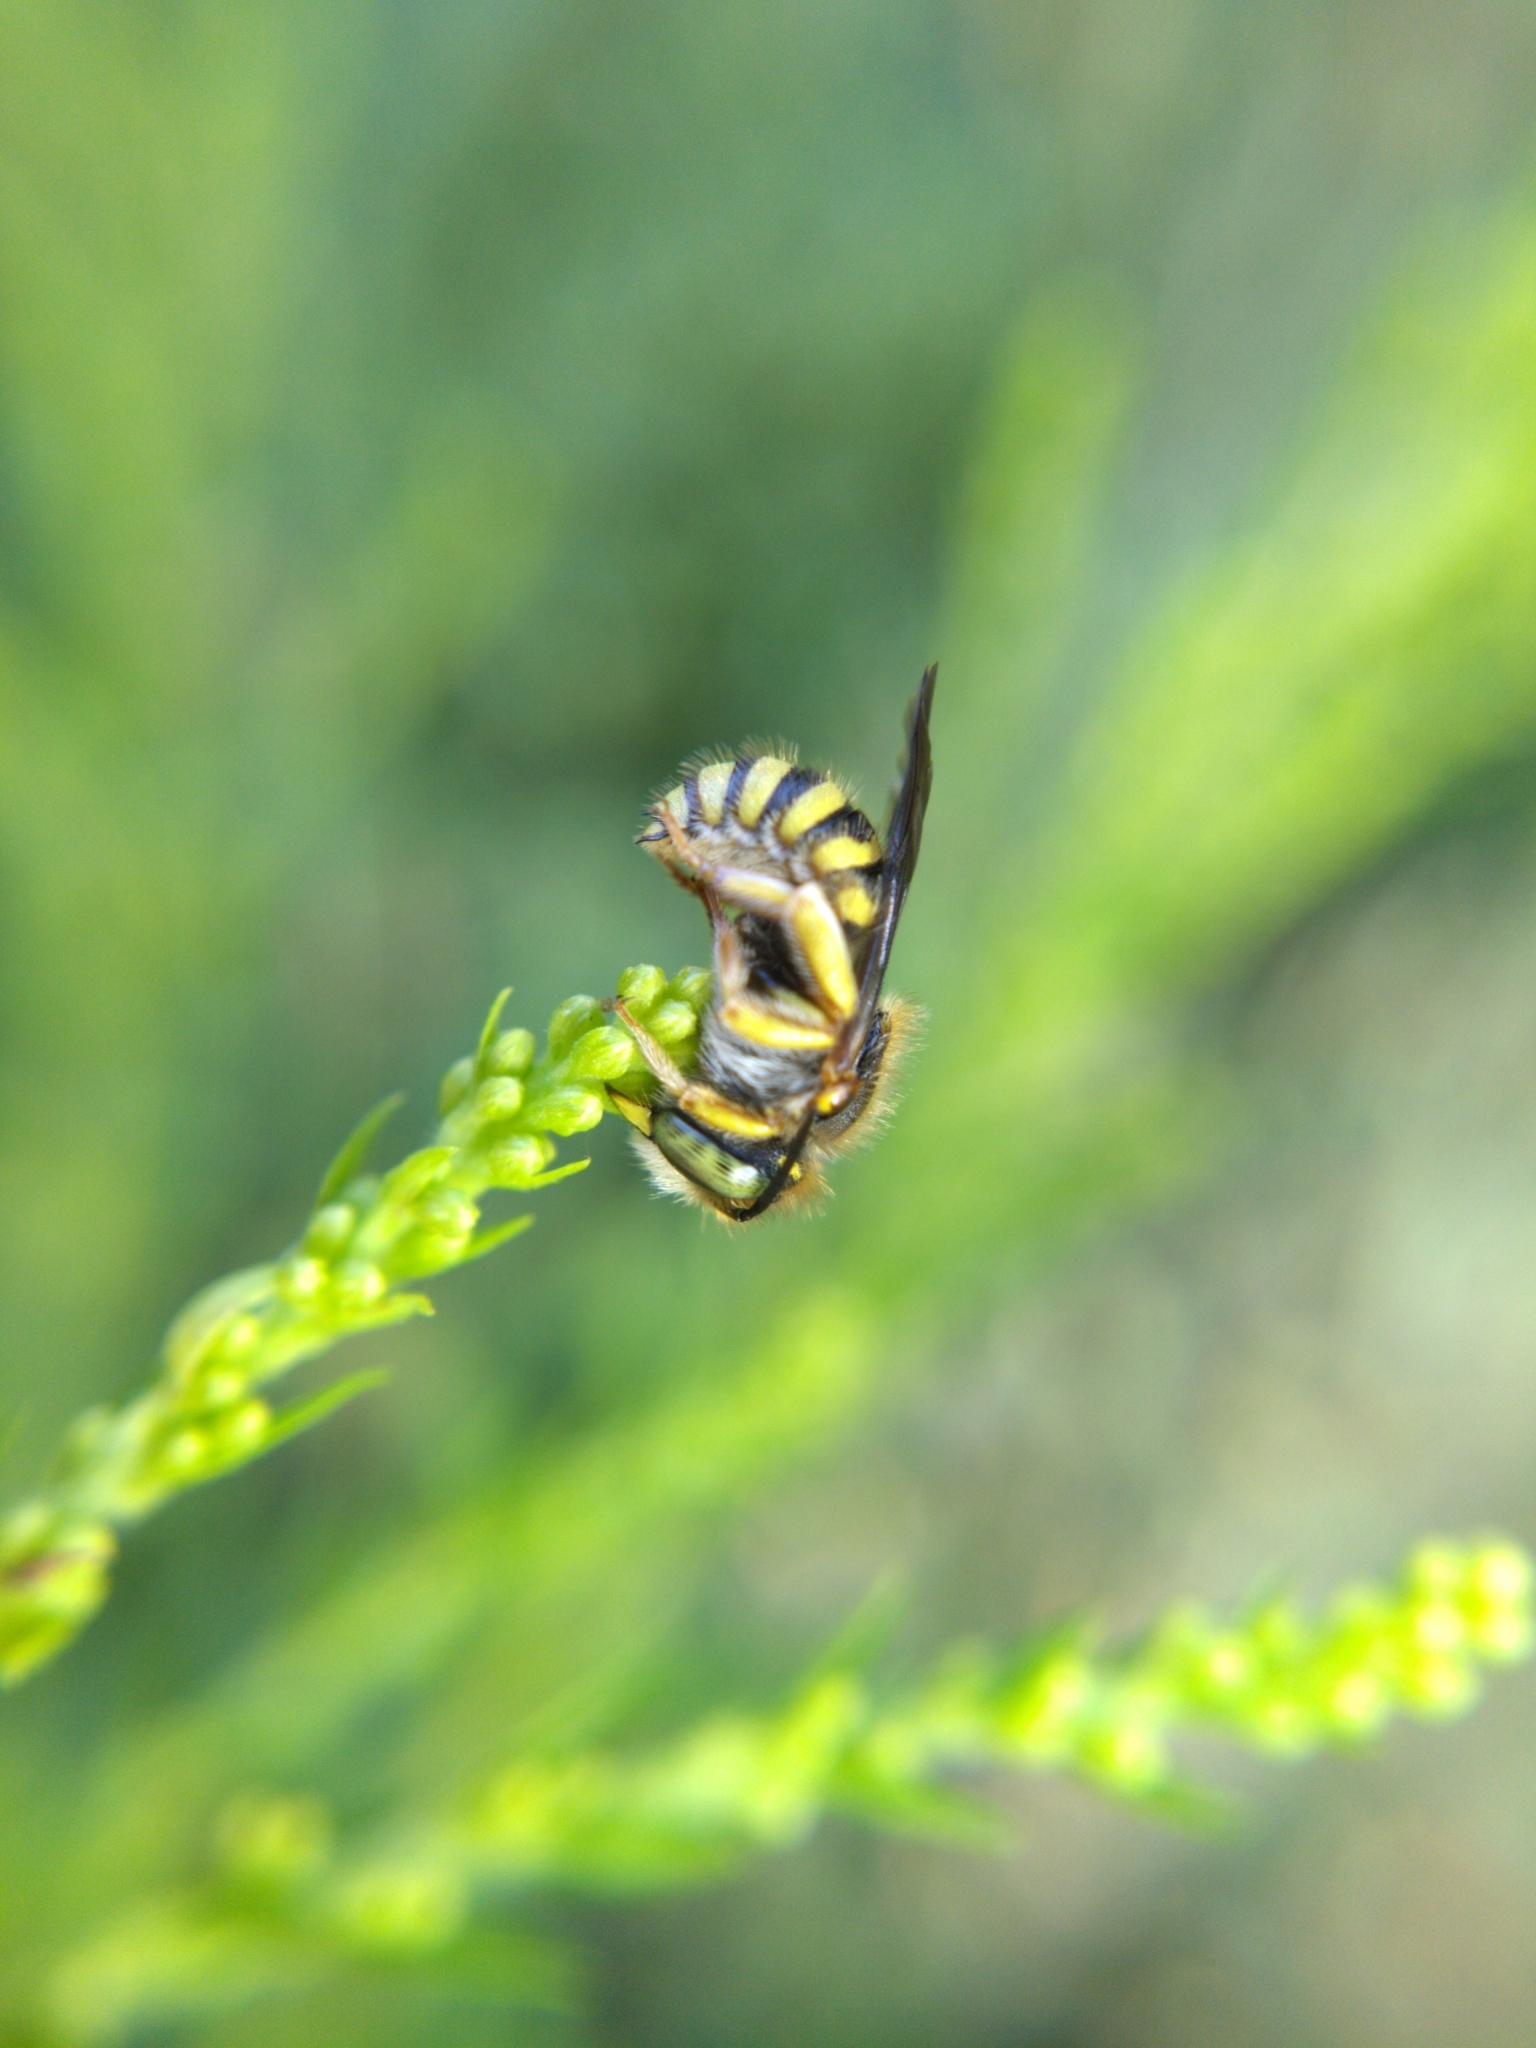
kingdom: Animalia
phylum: Arthropoda
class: Insecta
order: Hymenoptera
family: Megachilidae
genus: Anthidium
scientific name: Anthidium oblongatum
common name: Oblong wool carder bee
